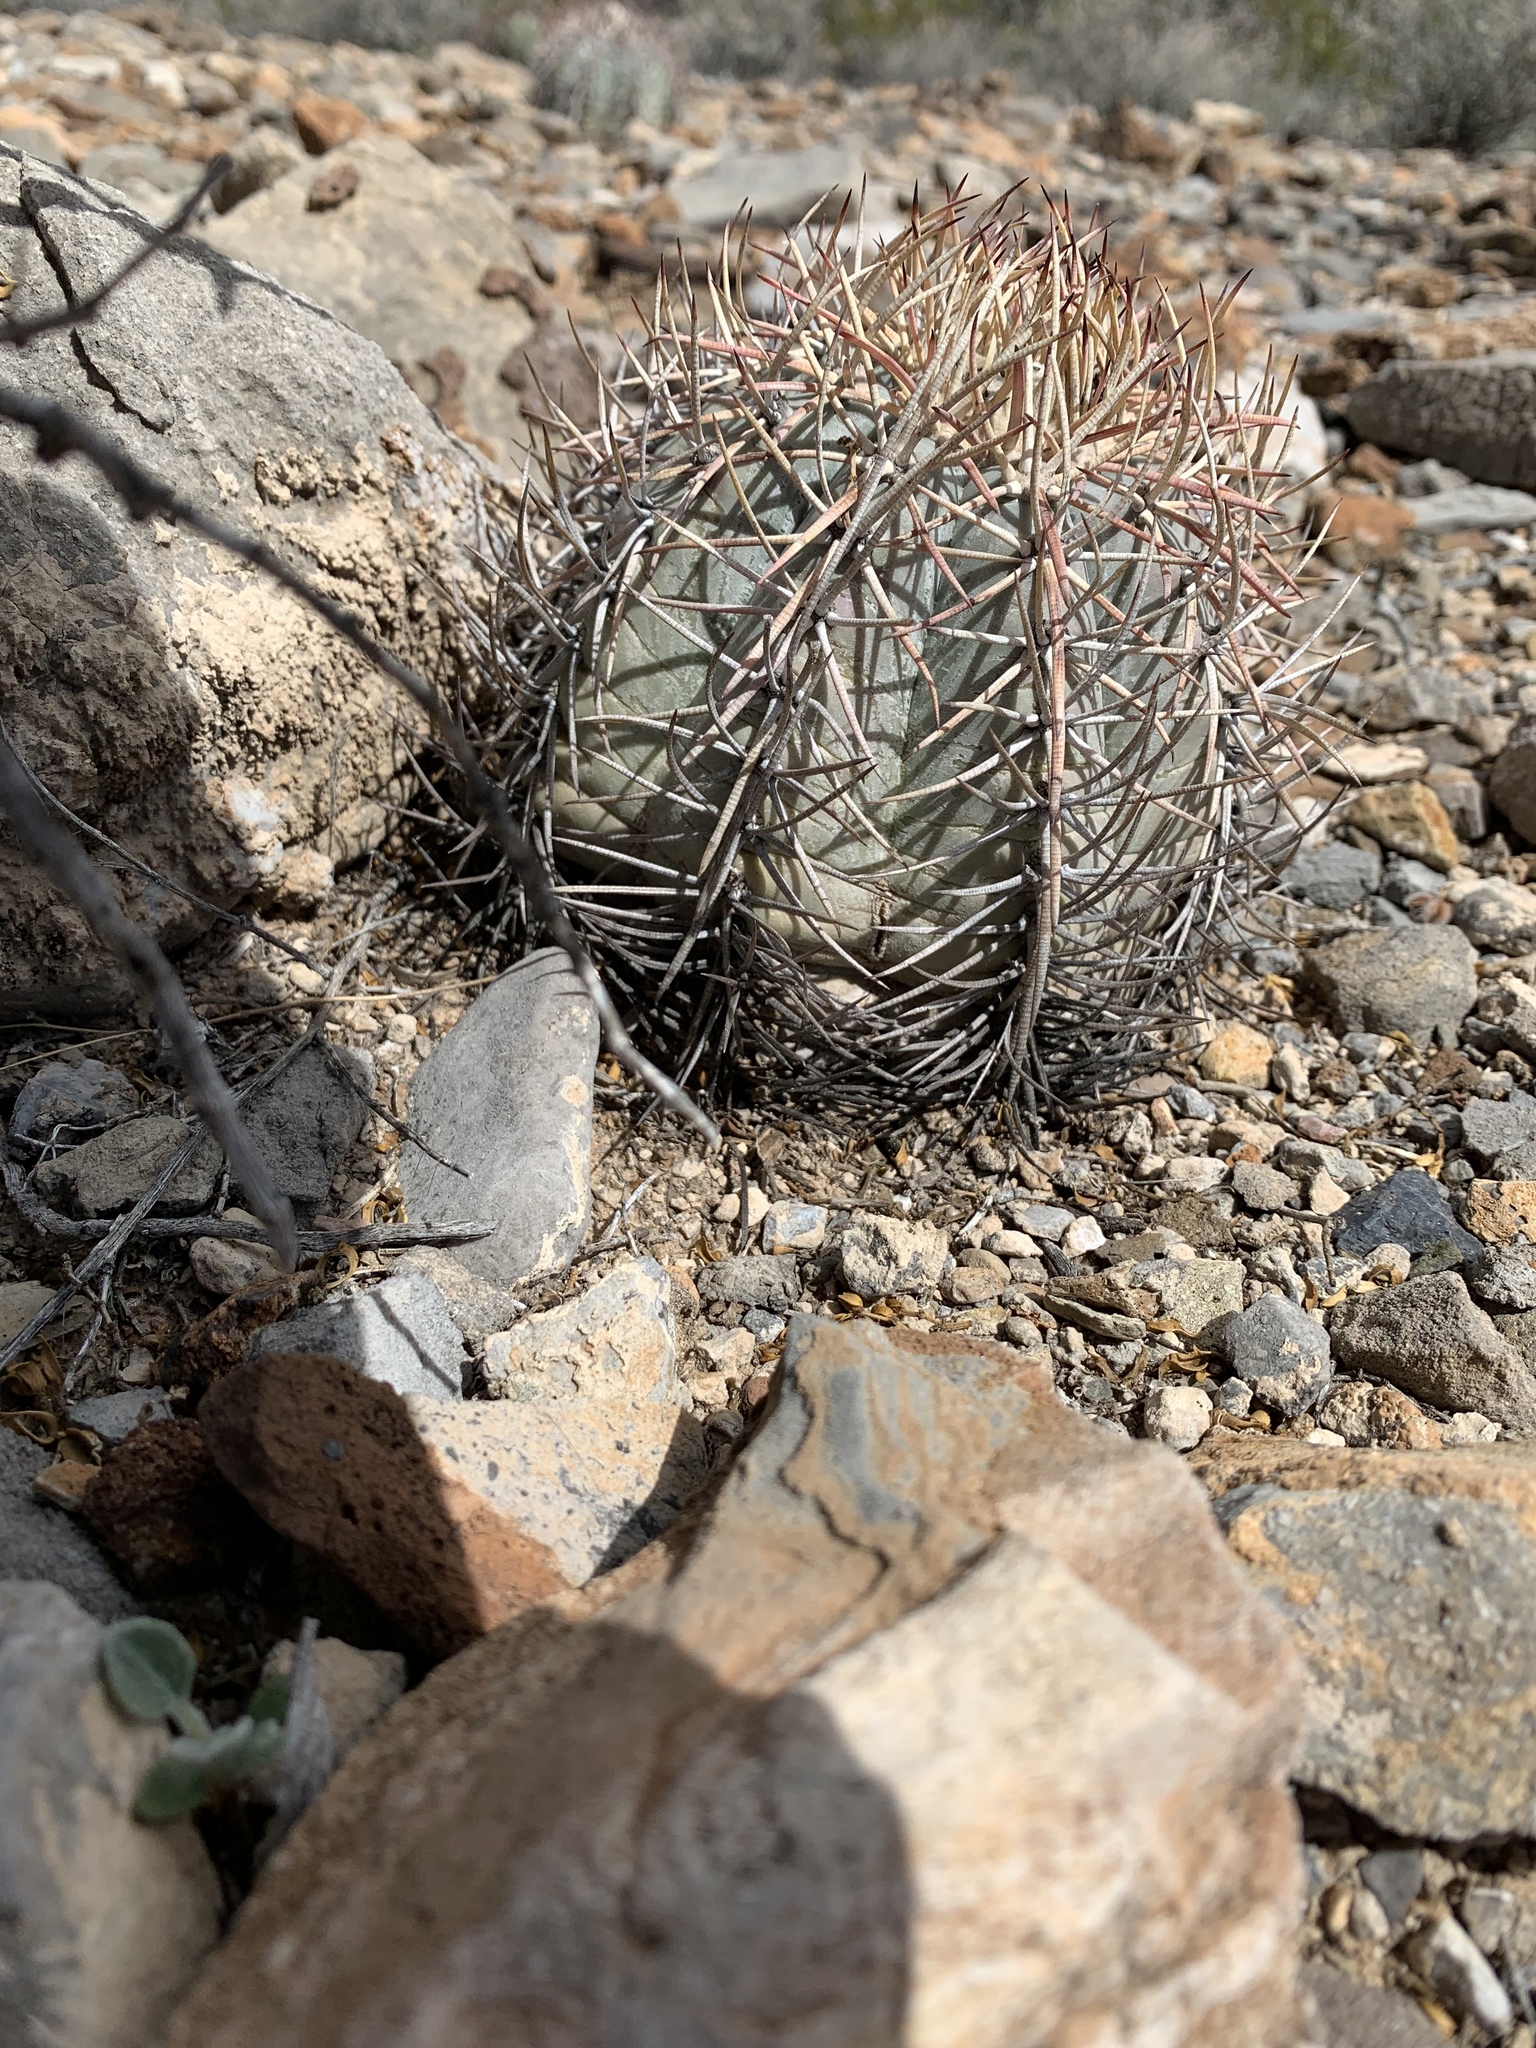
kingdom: Plantae
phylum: Tracheophyta
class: Magnoliopsida
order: Caryophyllales
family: Cactaceae
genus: Echinocactus
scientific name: Echinocactus horizonthalonius
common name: Devilshead
